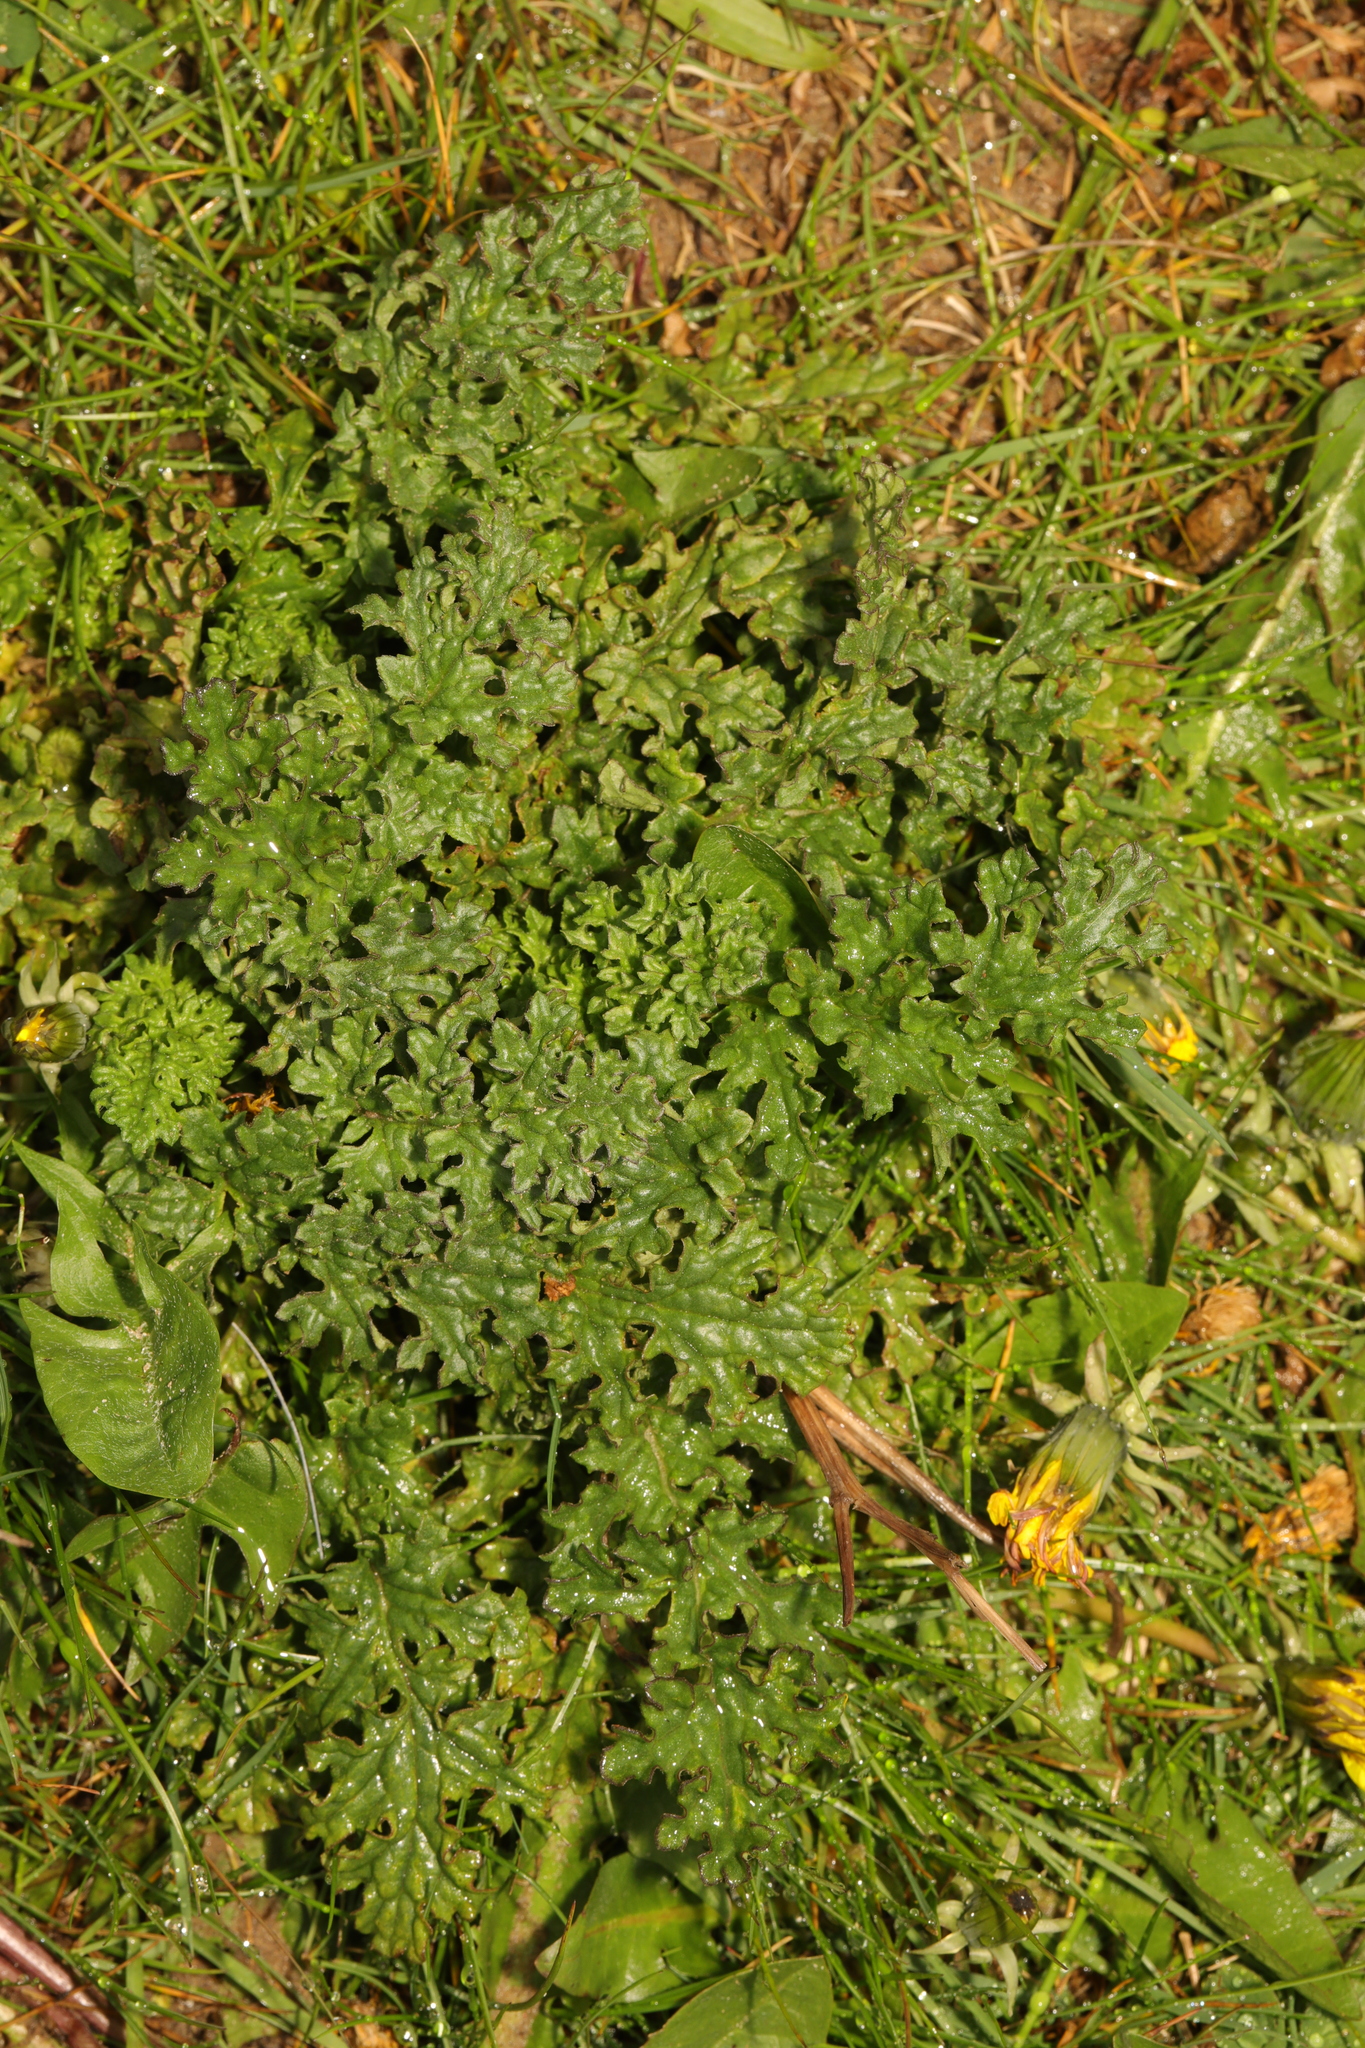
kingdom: Plantae
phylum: Tracheophyta
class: Magnoliopsida
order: Asterales
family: Asteraceae
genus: Jacobaea
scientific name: Jacobaea vulgaris
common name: Stinking willie
